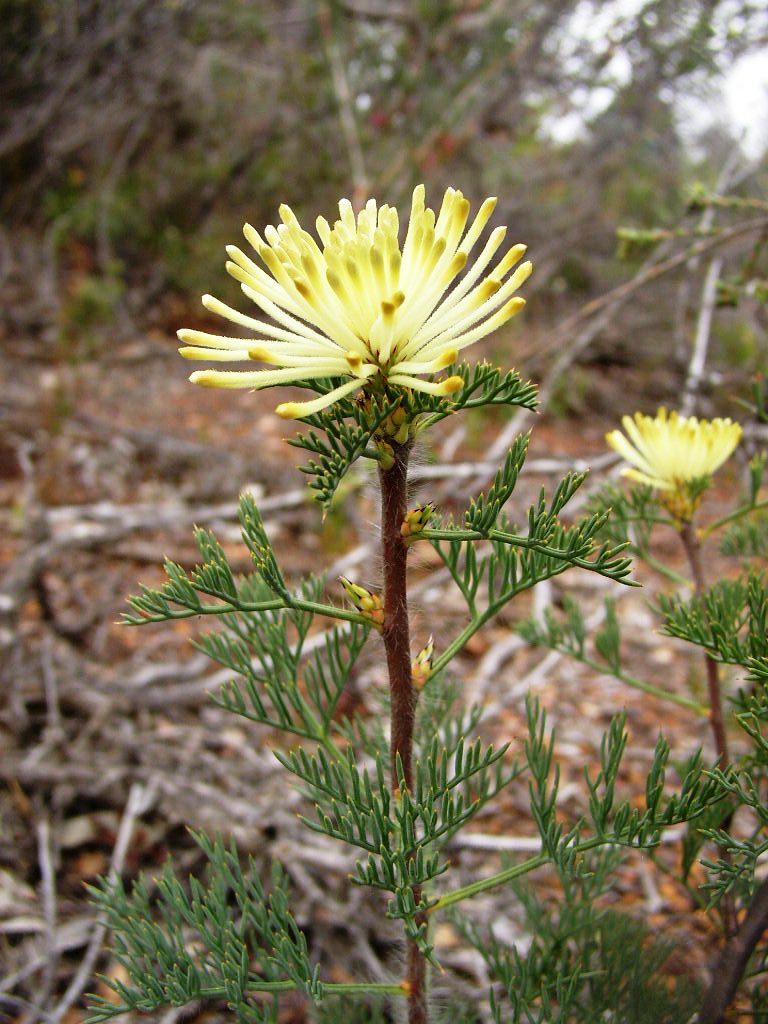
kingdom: Plantae
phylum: Tracheophyta
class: Magnoliopsida
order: Proteales
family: Proteaceae
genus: Petrophile
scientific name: Petrophile divaricata
